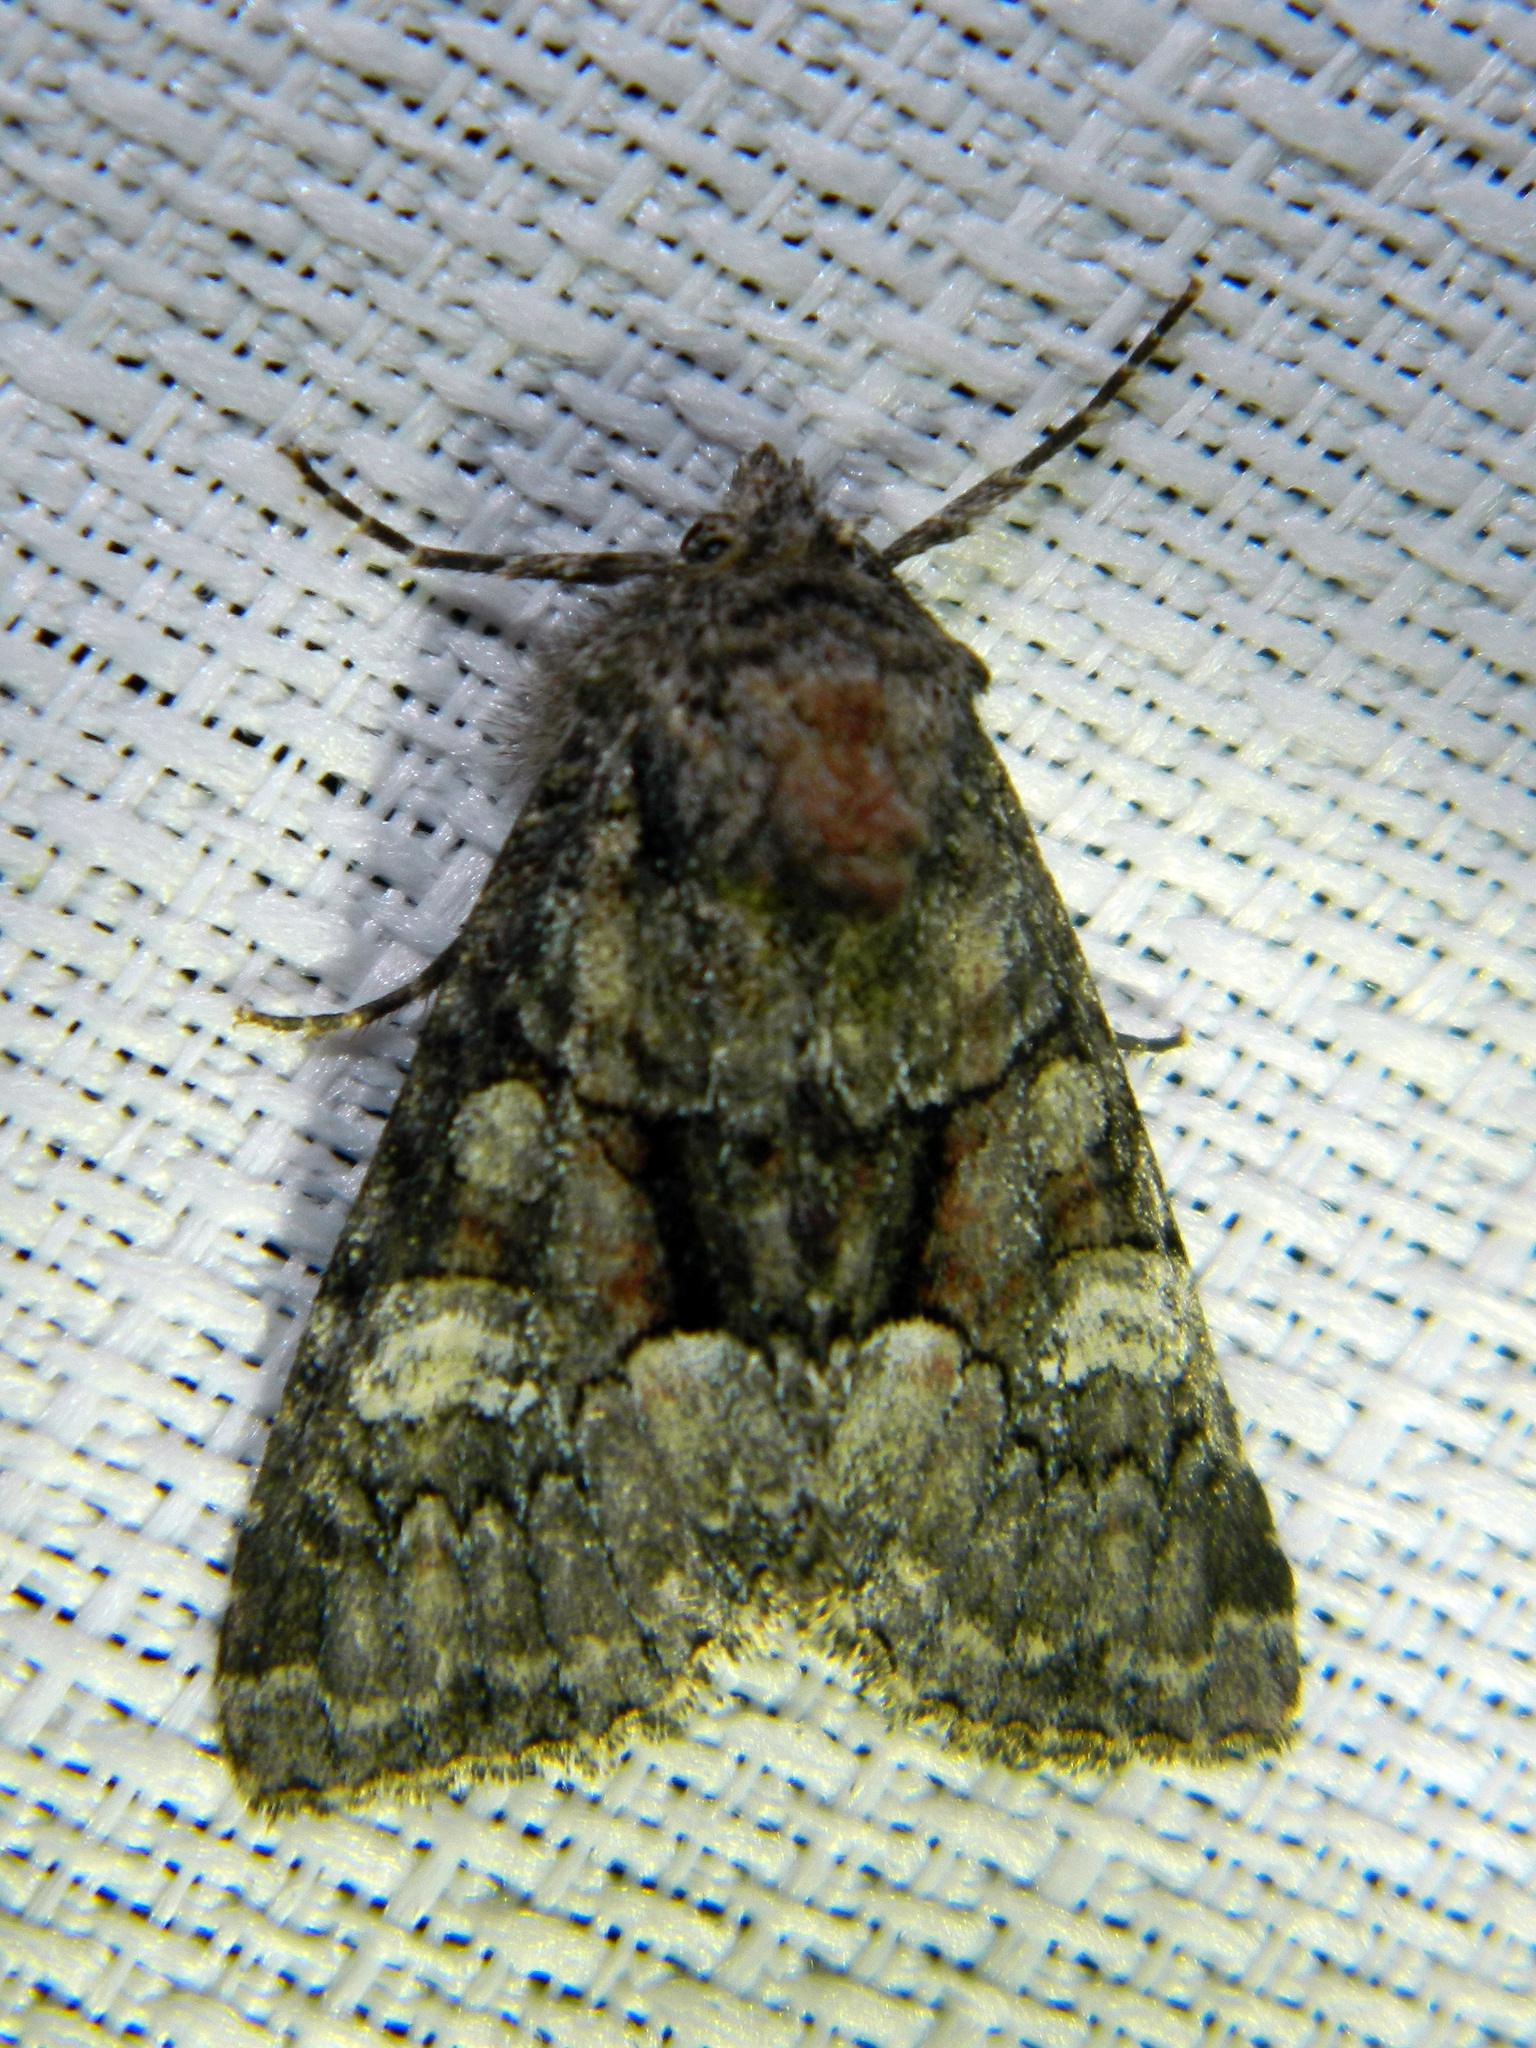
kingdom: Animalia
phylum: Arthropoda
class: Insecta
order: Lepidoptera
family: Noctuidae
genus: Fishia
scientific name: Fishia illocata
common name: Wandering brocade moth
